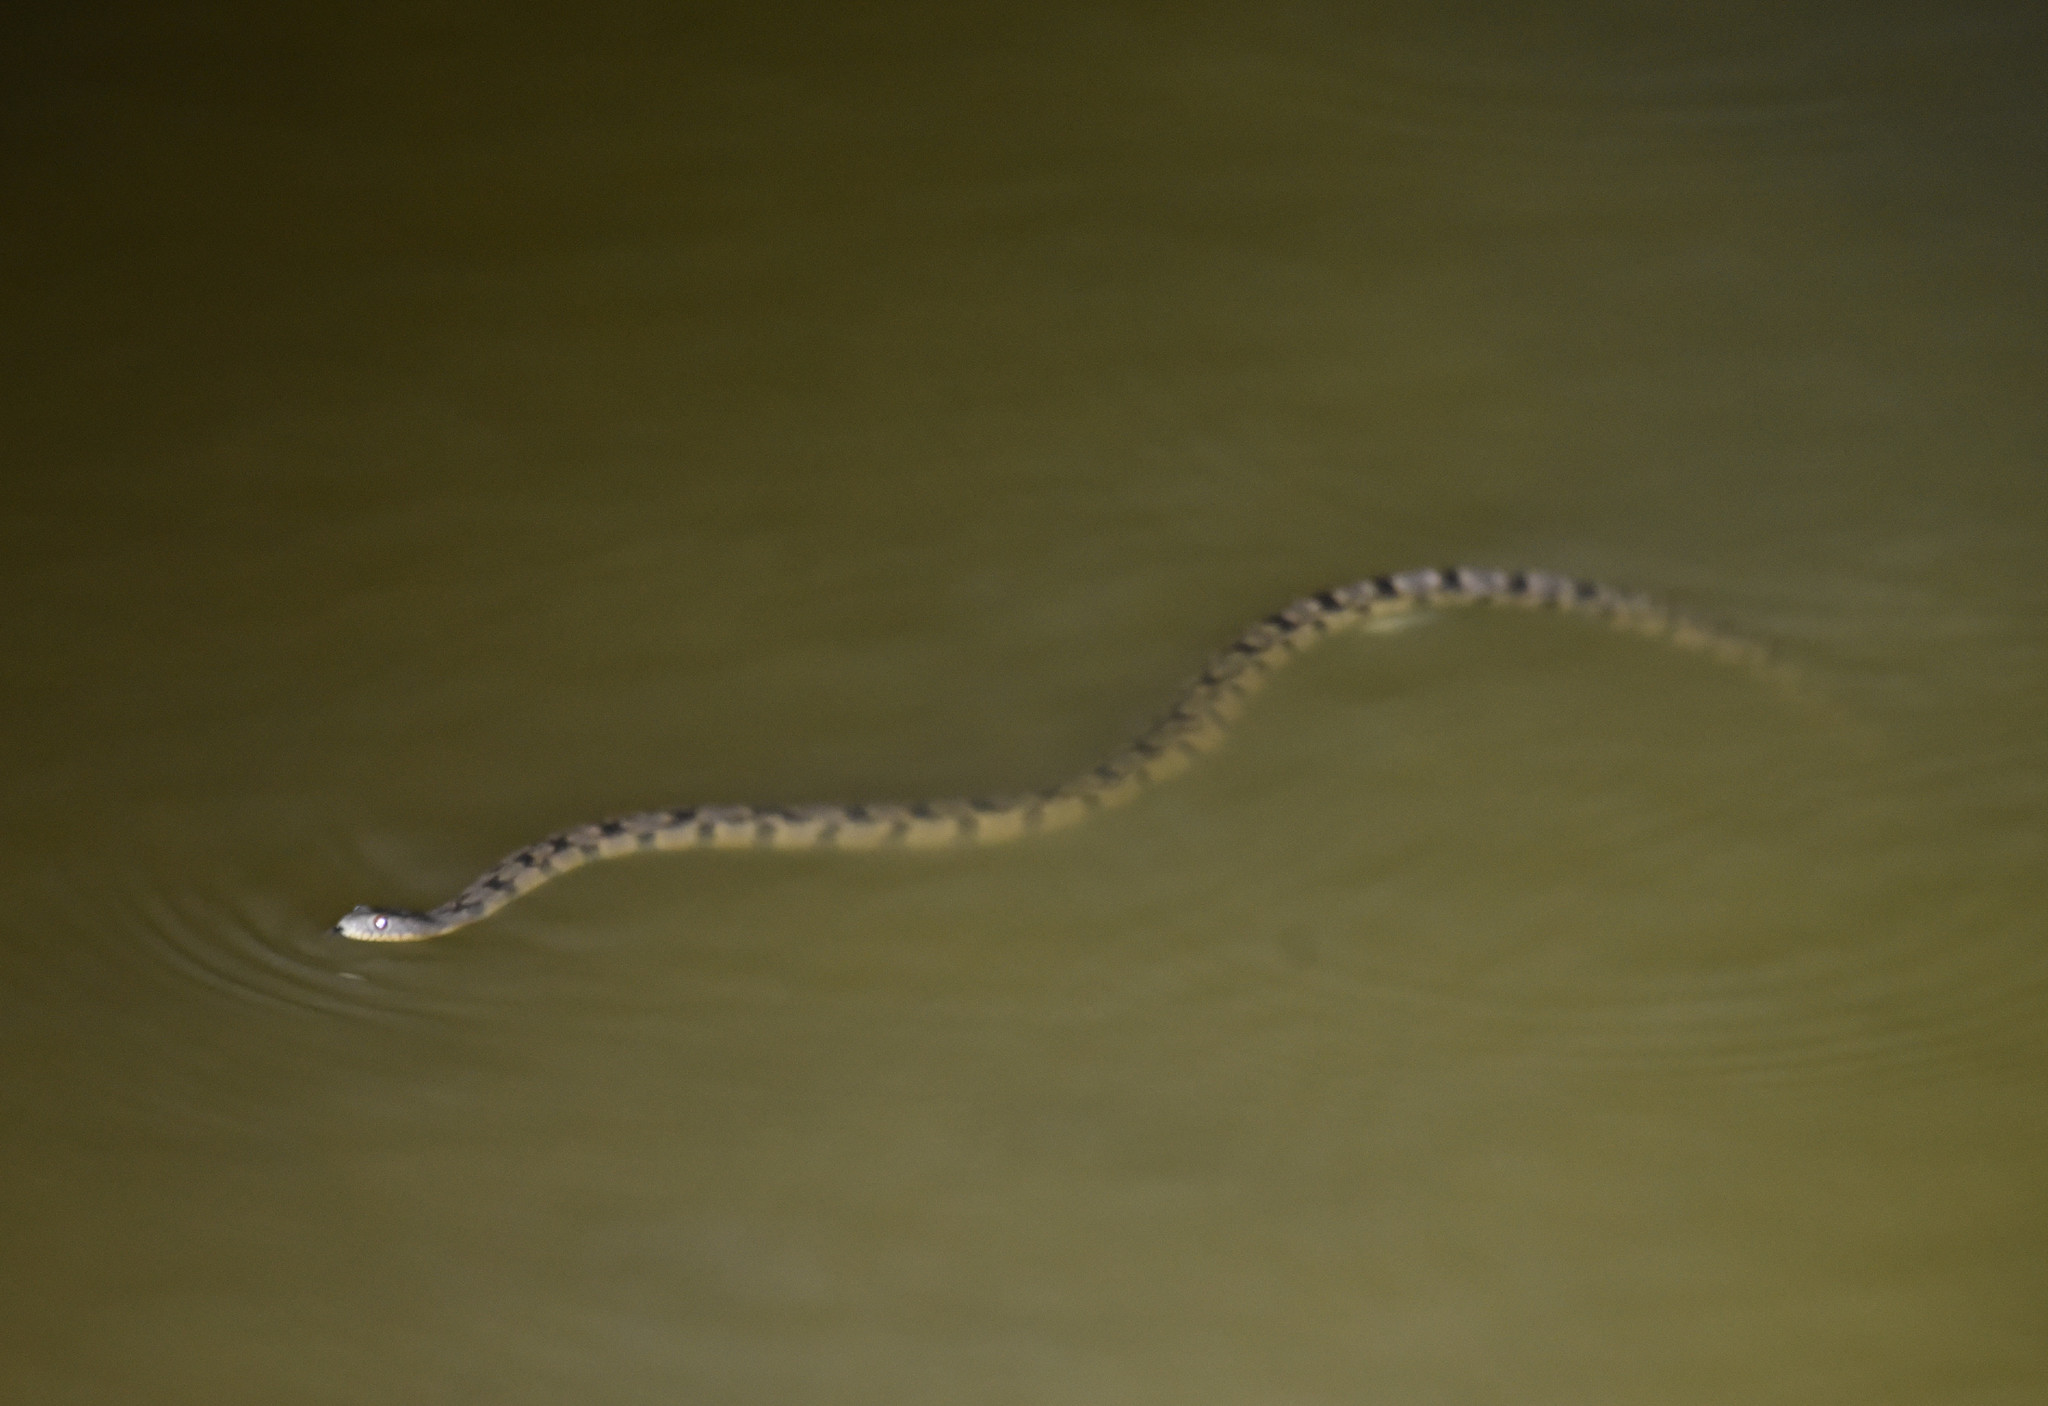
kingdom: Animalia
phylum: Chordata
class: Squamata
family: Colubridae
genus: Nerodia
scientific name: Nerodia rhombifer
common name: Diamondback water snake
